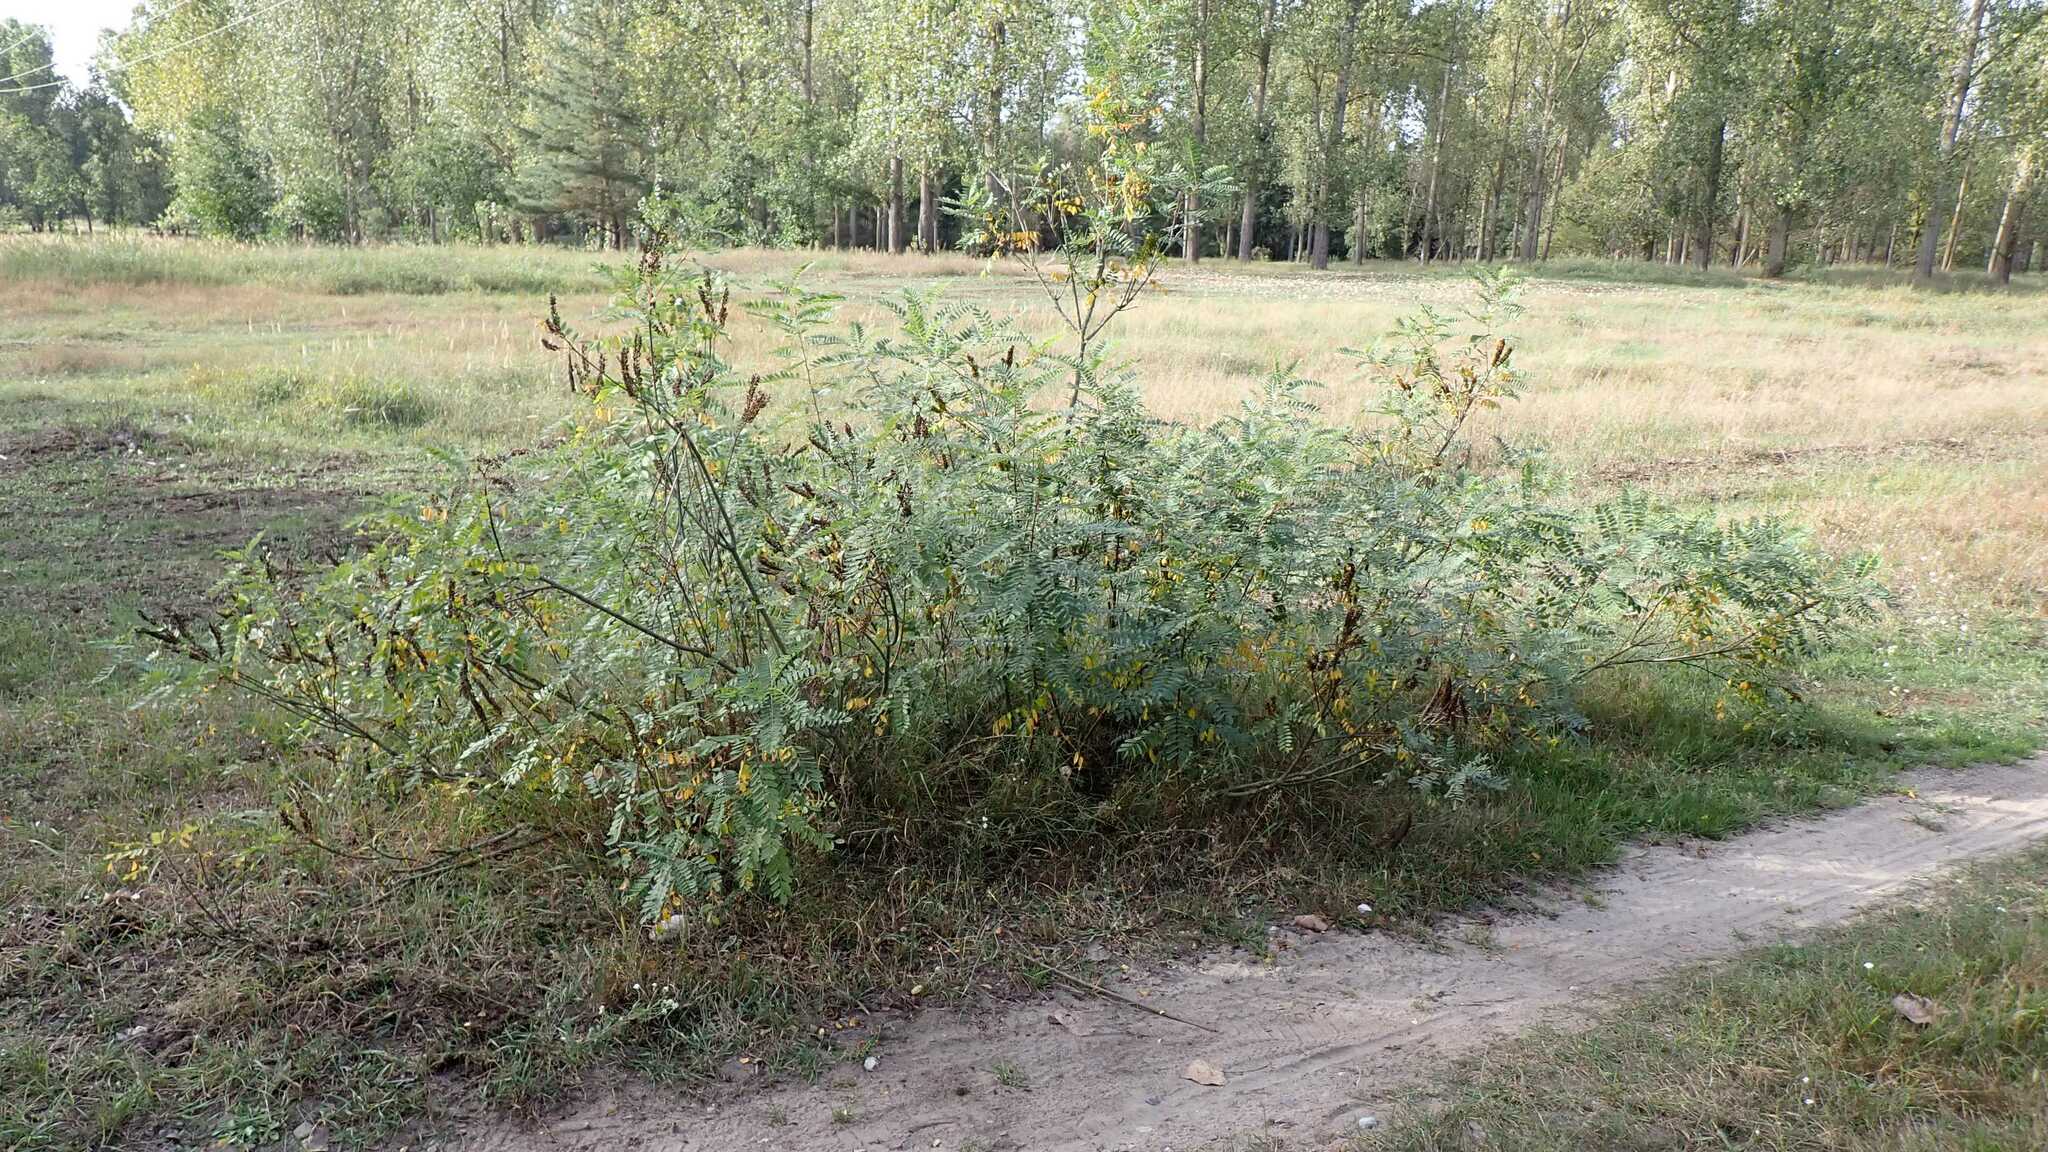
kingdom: Plantae
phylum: Tracheophyta
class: Magnoliopsida
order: Fabales
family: Fabaceae
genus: Amorpha
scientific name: Amorpha fruticosa
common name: False indigo
